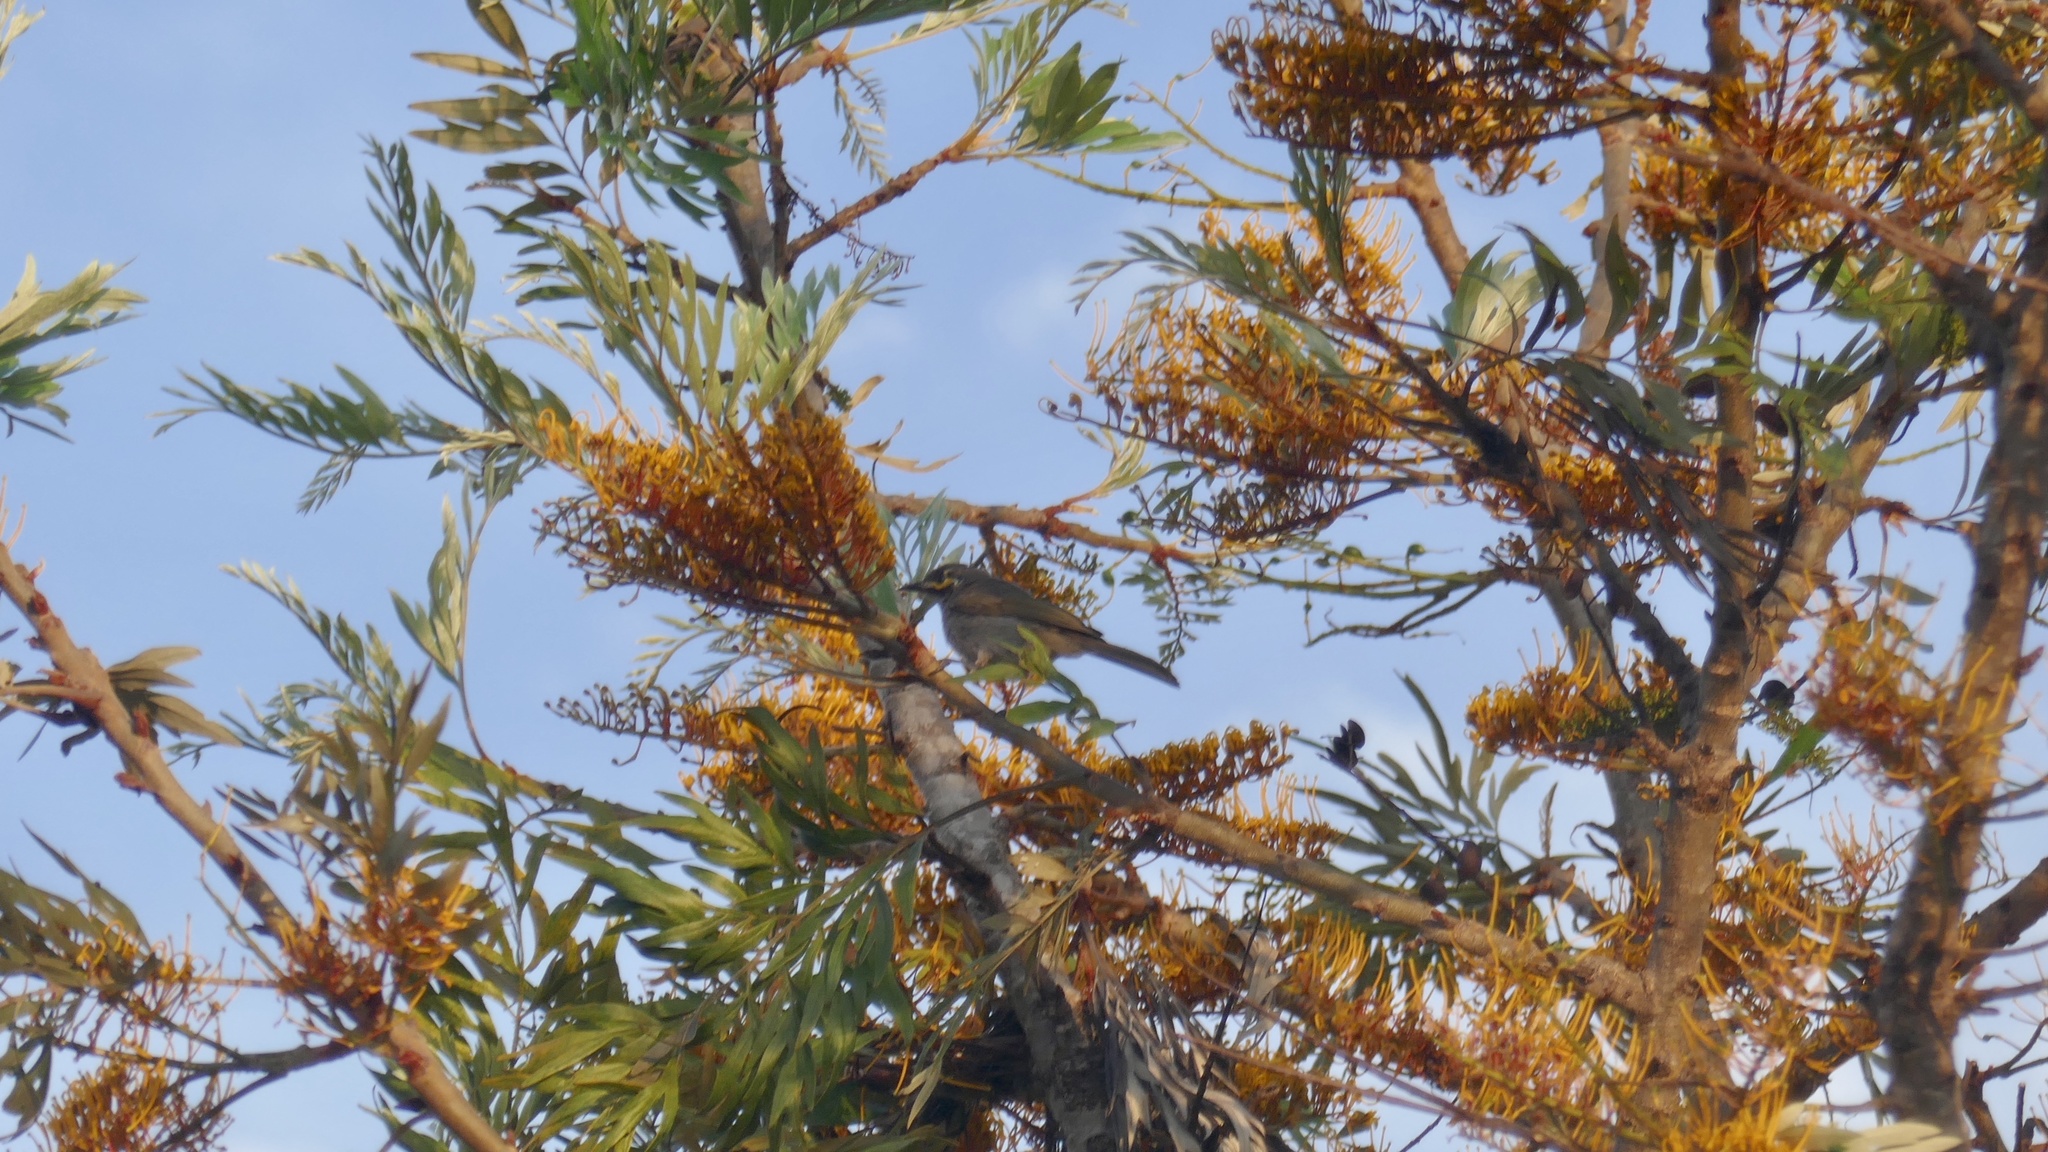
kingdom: Animalia
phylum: Chordata
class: Aves
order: Passeriformes
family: Meliphagidae
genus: Caligavis
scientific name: Caligavis chrysops
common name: Yellow-faced honeyeater
